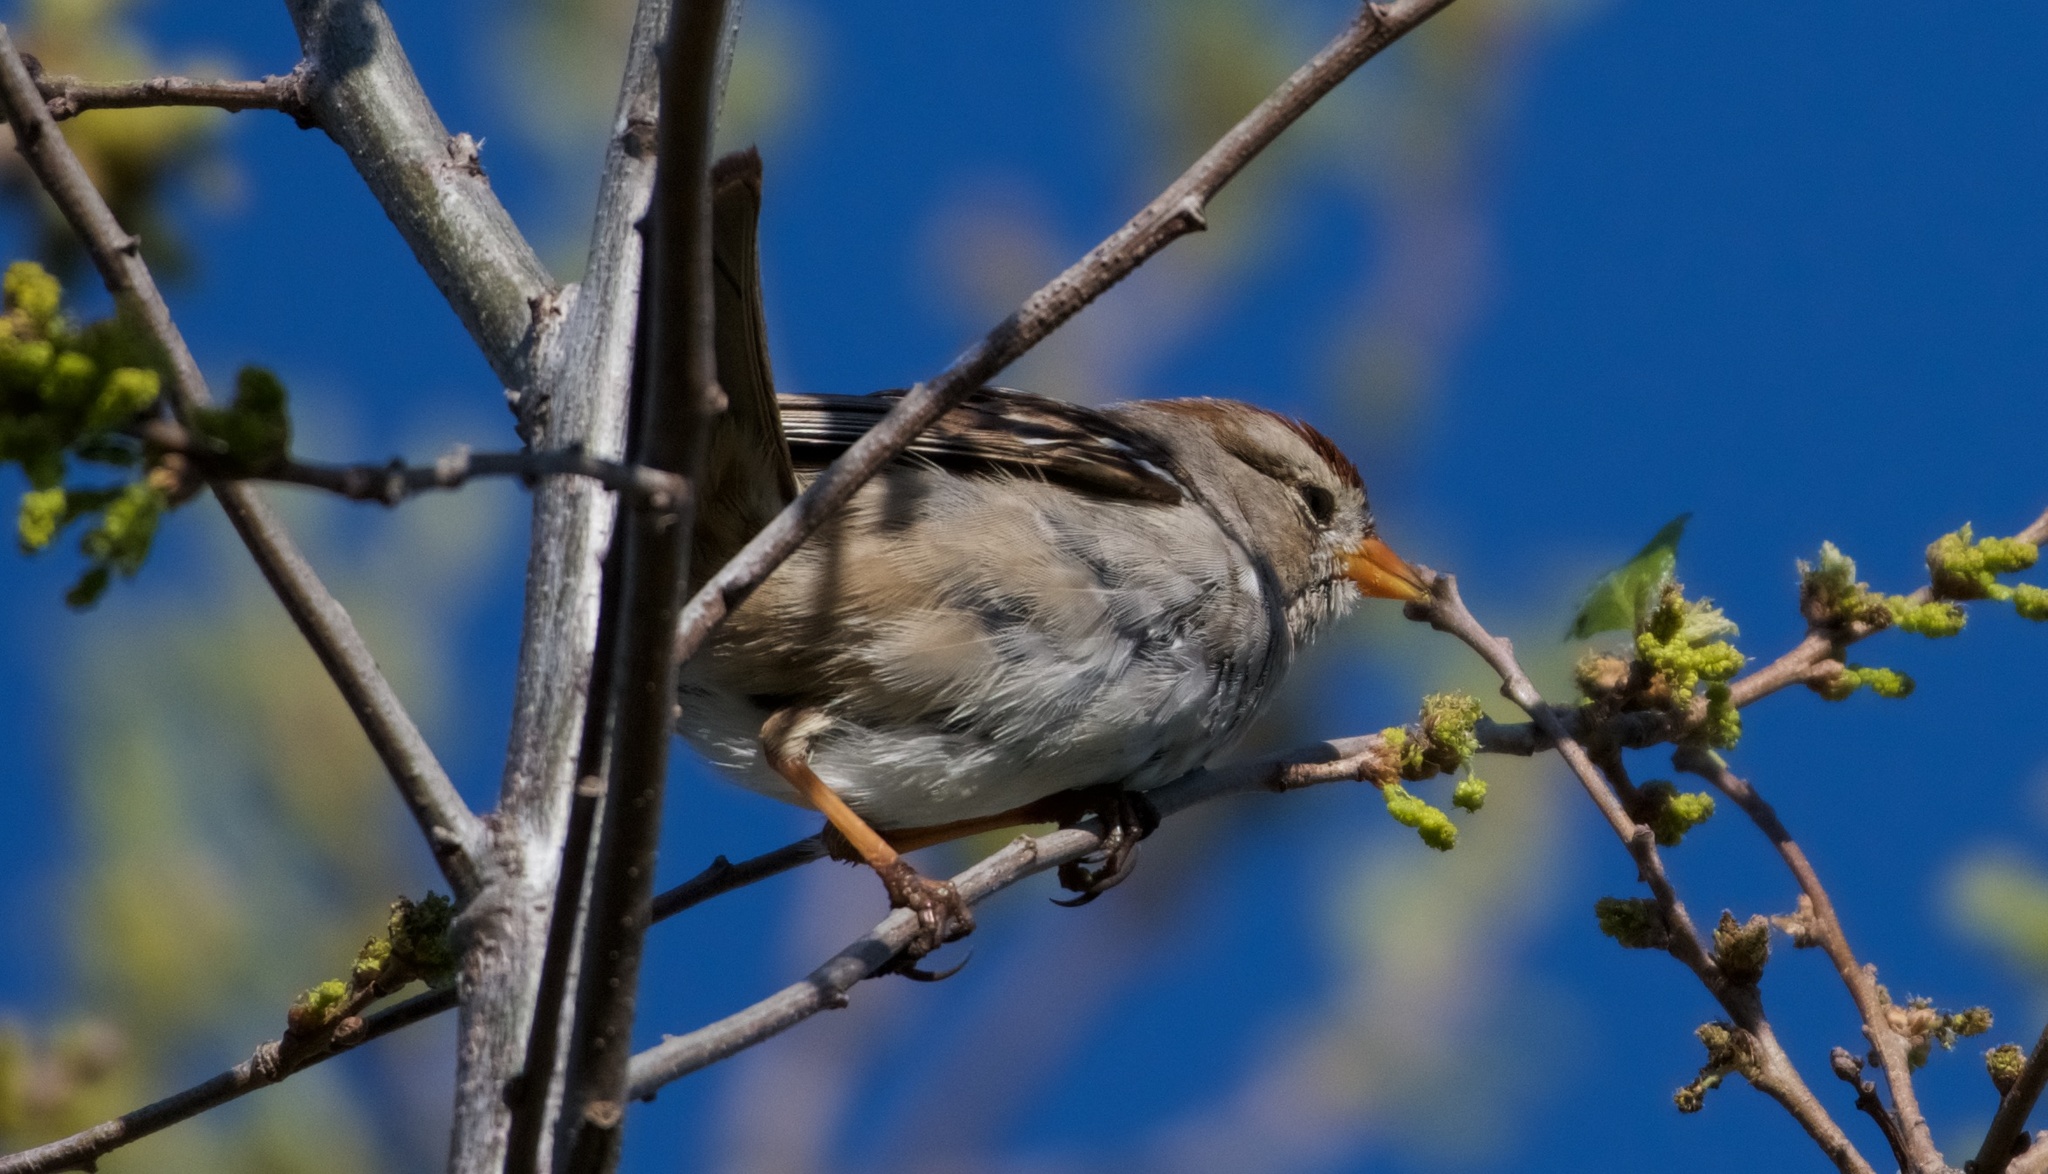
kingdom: Animalia
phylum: Chordata
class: Aves
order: Passeriformes
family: Passerellidae
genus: Zonotrichia
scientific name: Zonotrichia leucophrys
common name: White-crowned sparrow
